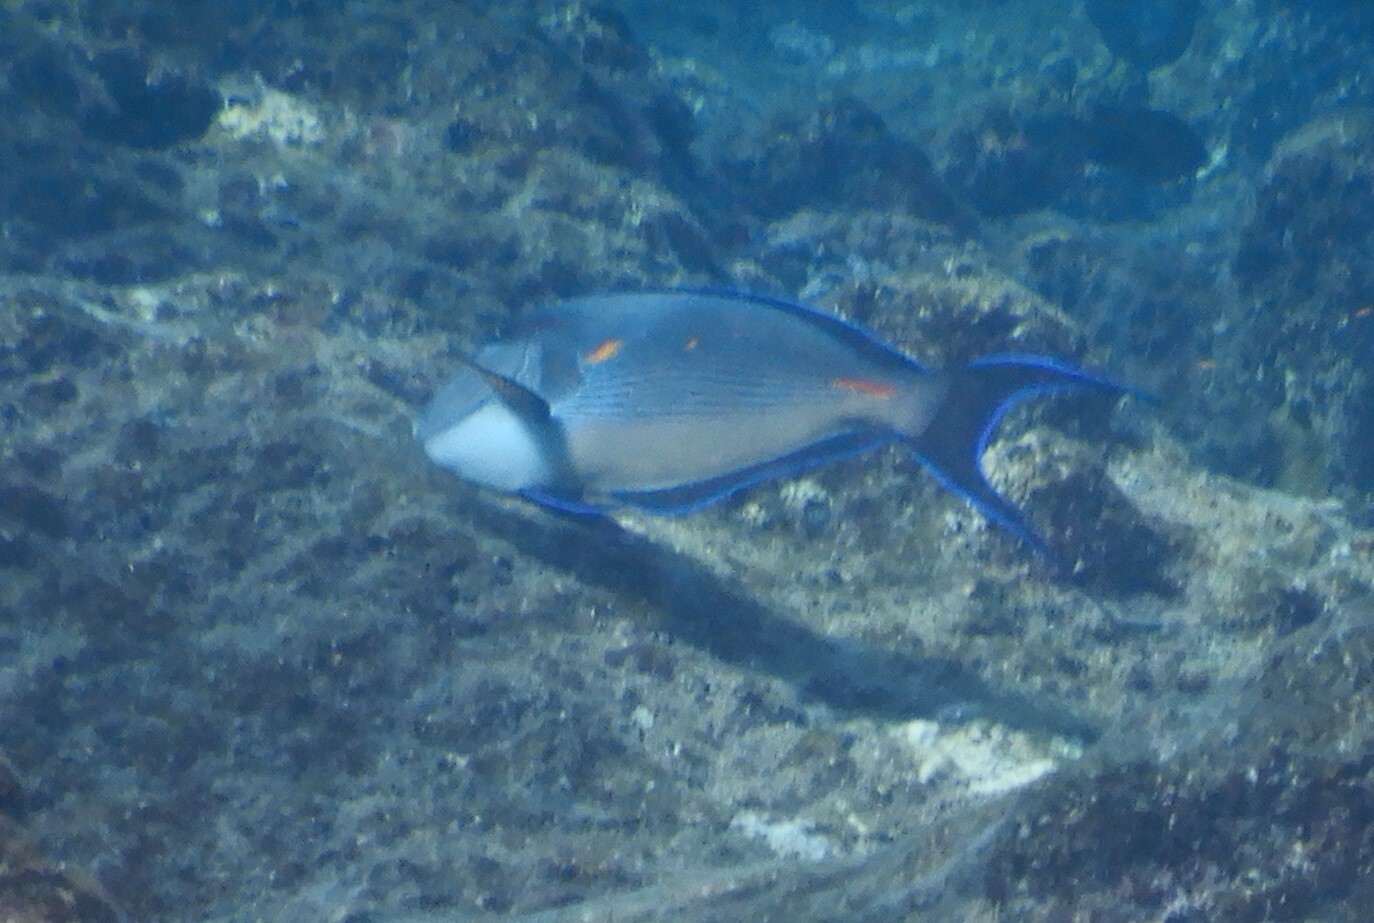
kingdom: Animalia
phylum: Chordata
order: Perciformes
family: Acanthuridae
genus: Acanthurus
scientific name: Acanthurus sohal
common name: Red sea surgeonfish
